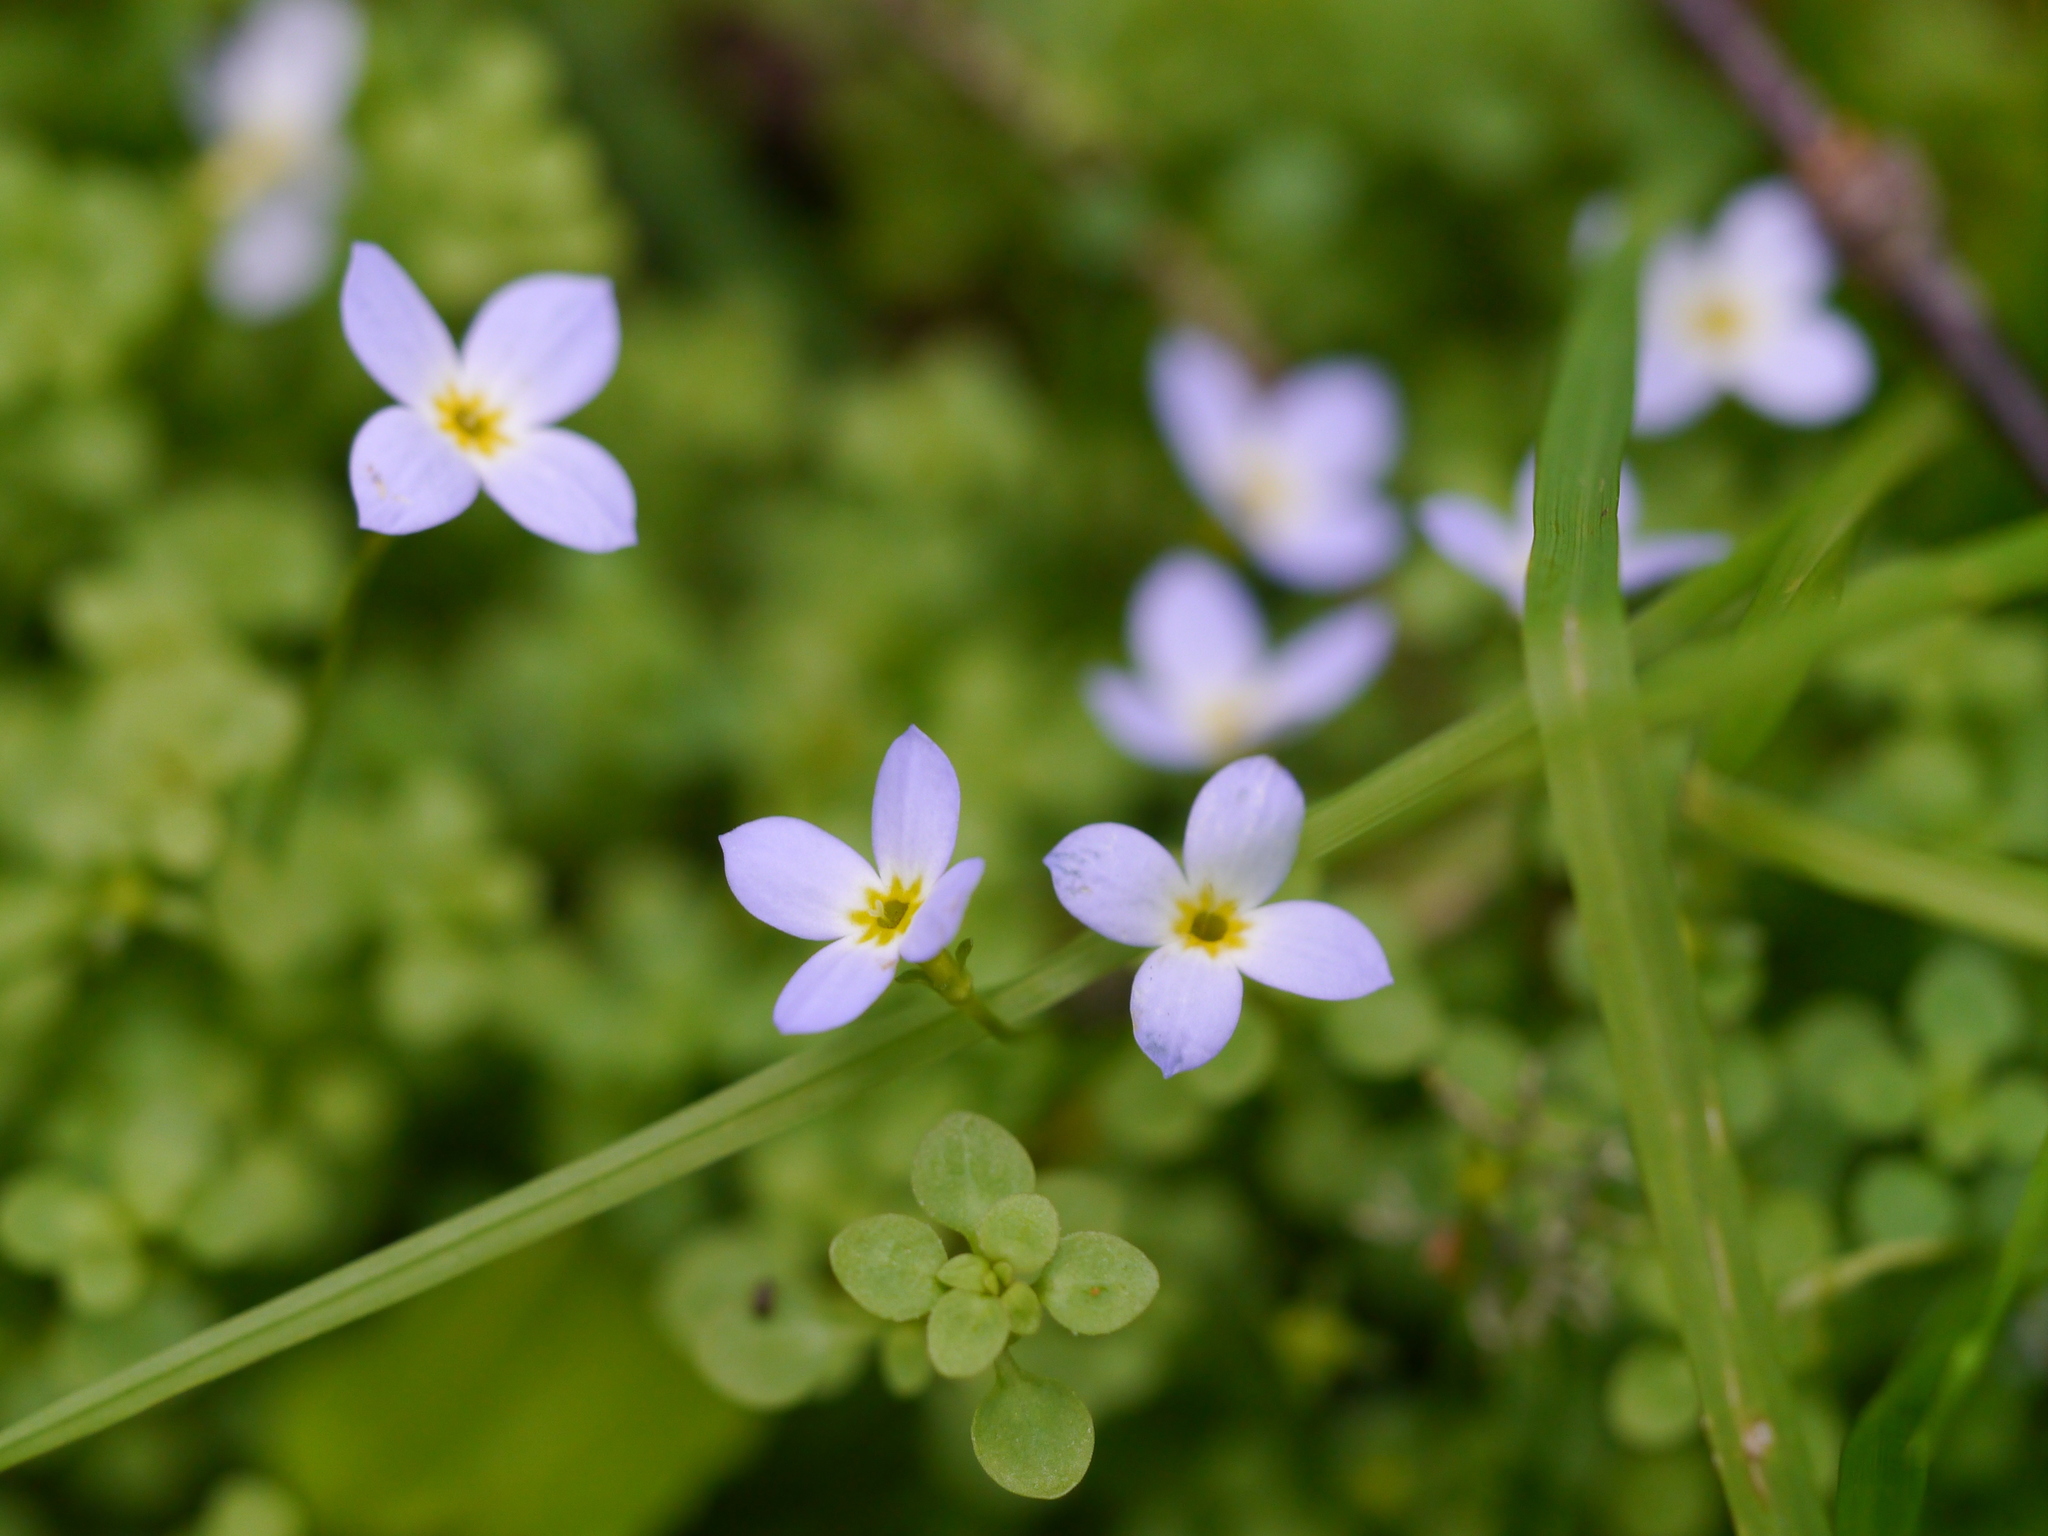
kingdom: Plantae
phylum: Tracheophyta
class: Magnoliopsida
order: Gentianales
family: Rubiaceae
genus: Houstonia
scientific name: Houstonia serpyllifolia
